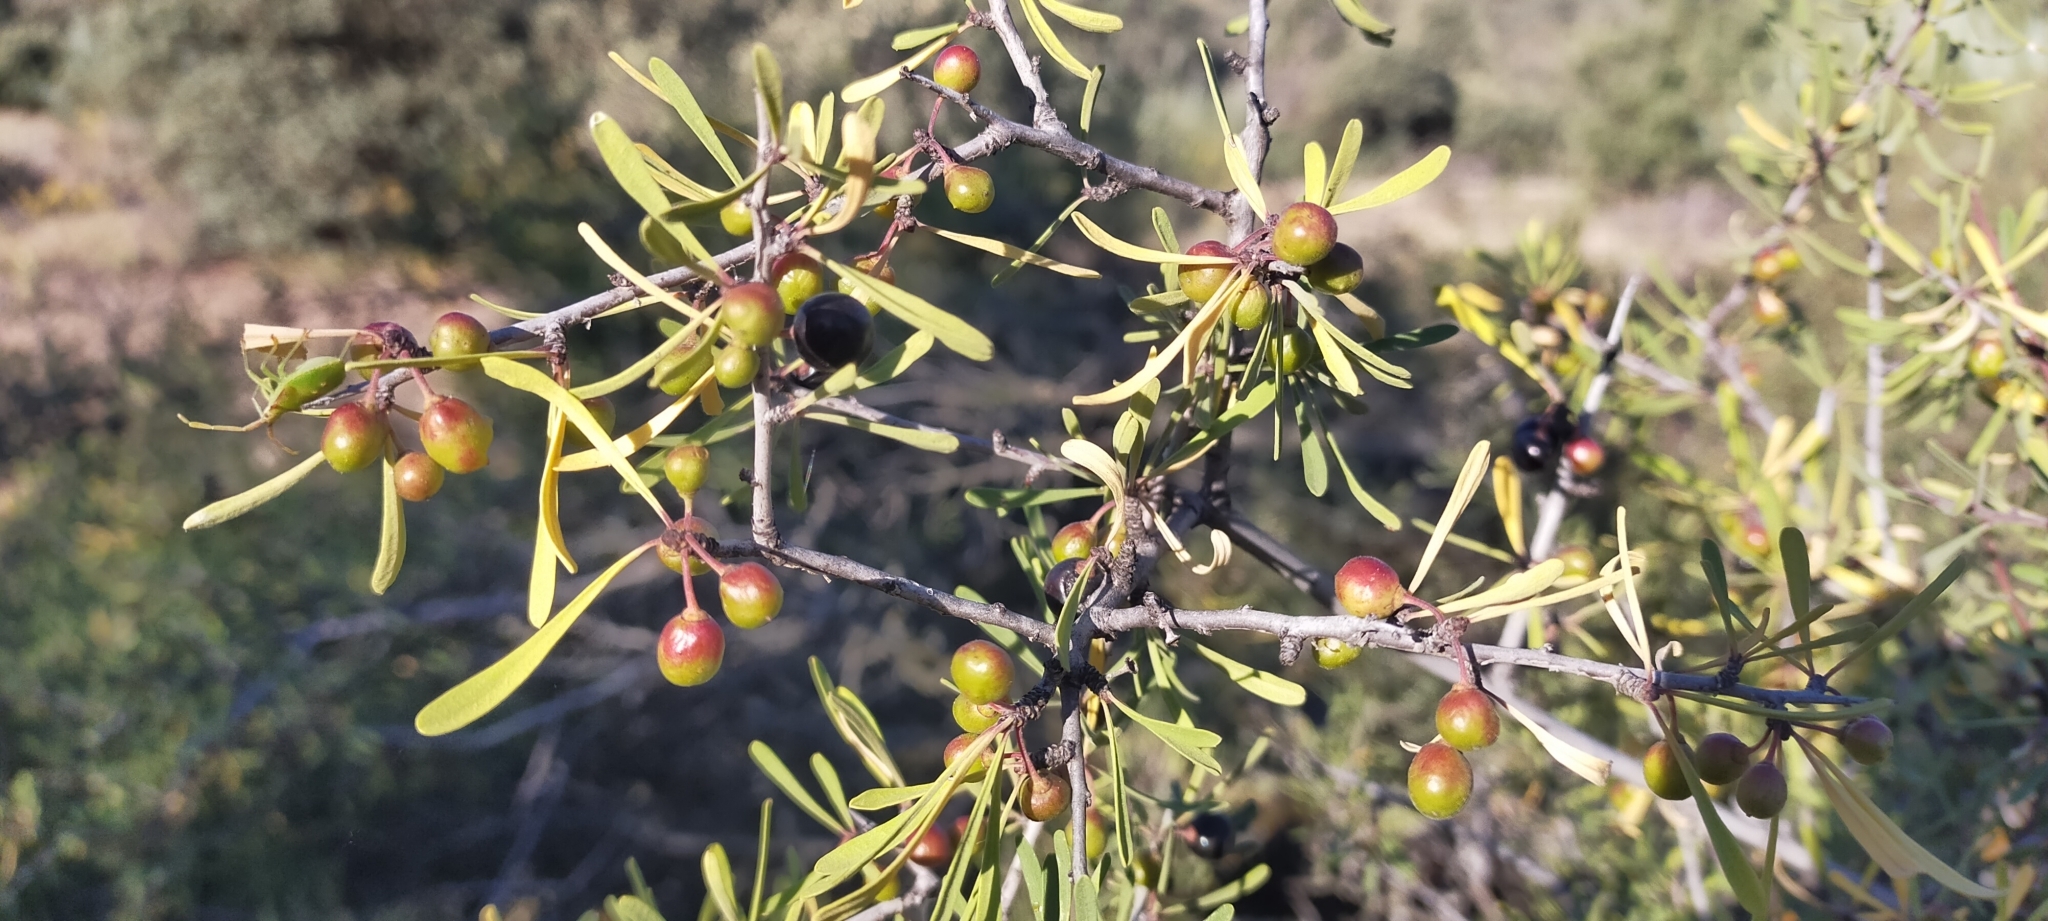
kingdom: Plantae
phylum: Tracheophyta
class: Magnoliopsida
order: Rosales
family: Rhamnaceae
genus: Rhamnus
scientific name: Rhamnus lycioides
